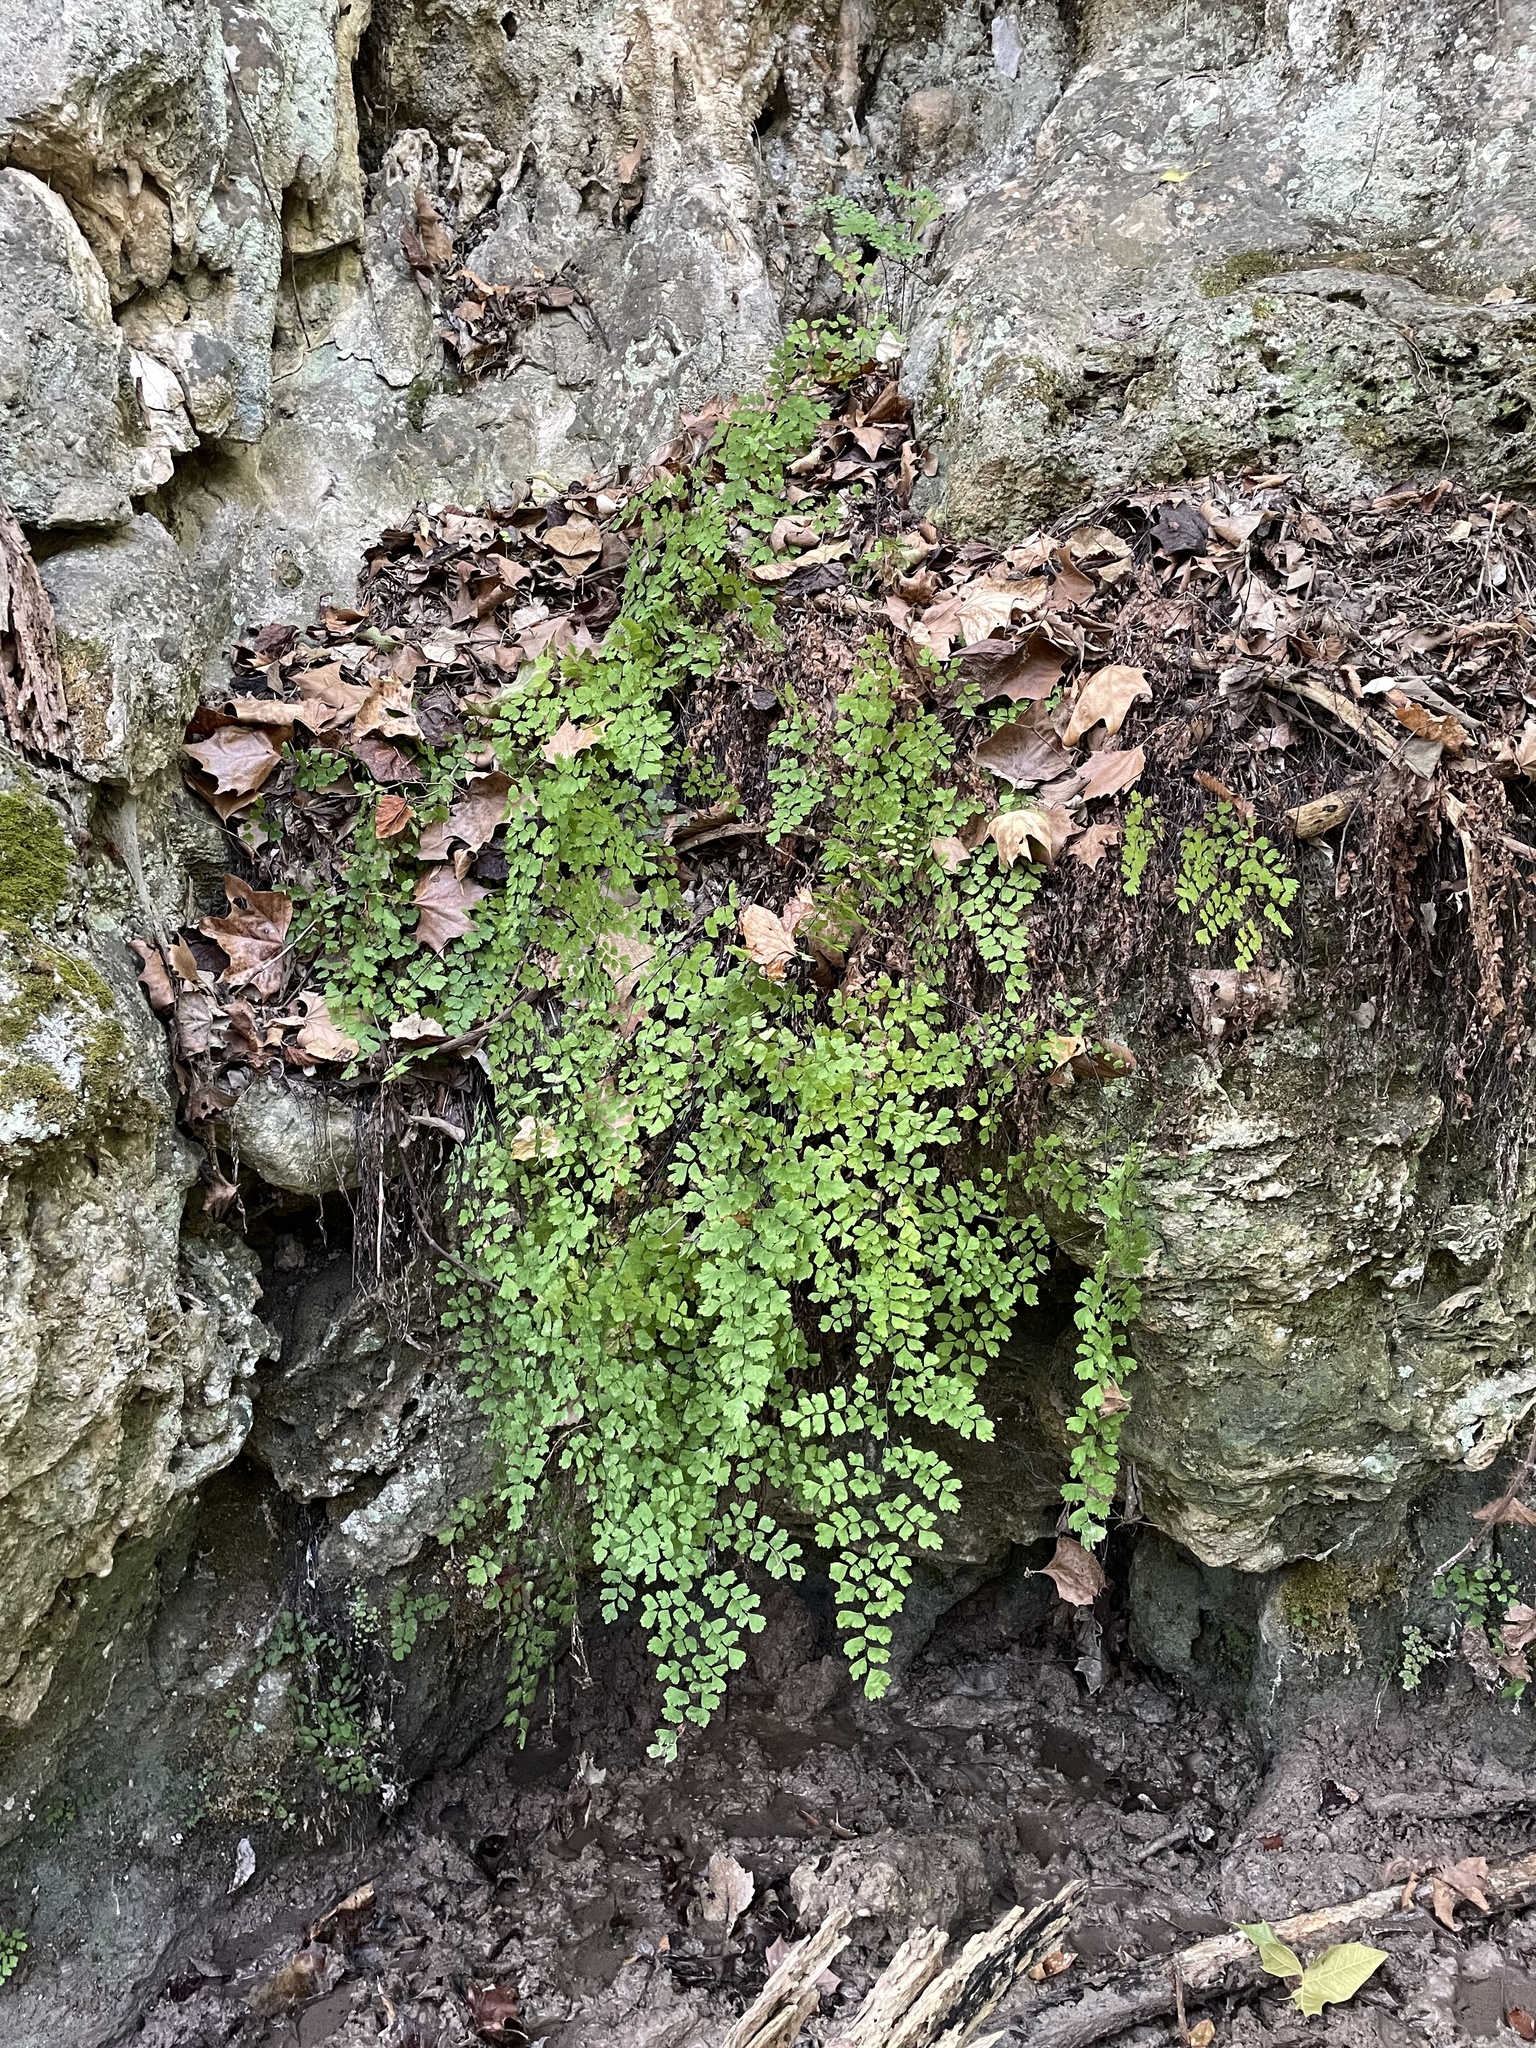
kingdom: Plantae
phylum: Tracheophyta
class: Polypodiopsida
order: Polypodiales
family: Pteridaceae
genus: Adiantum
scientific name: Adiantum capillus-veneris
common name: Maidenhair fern
